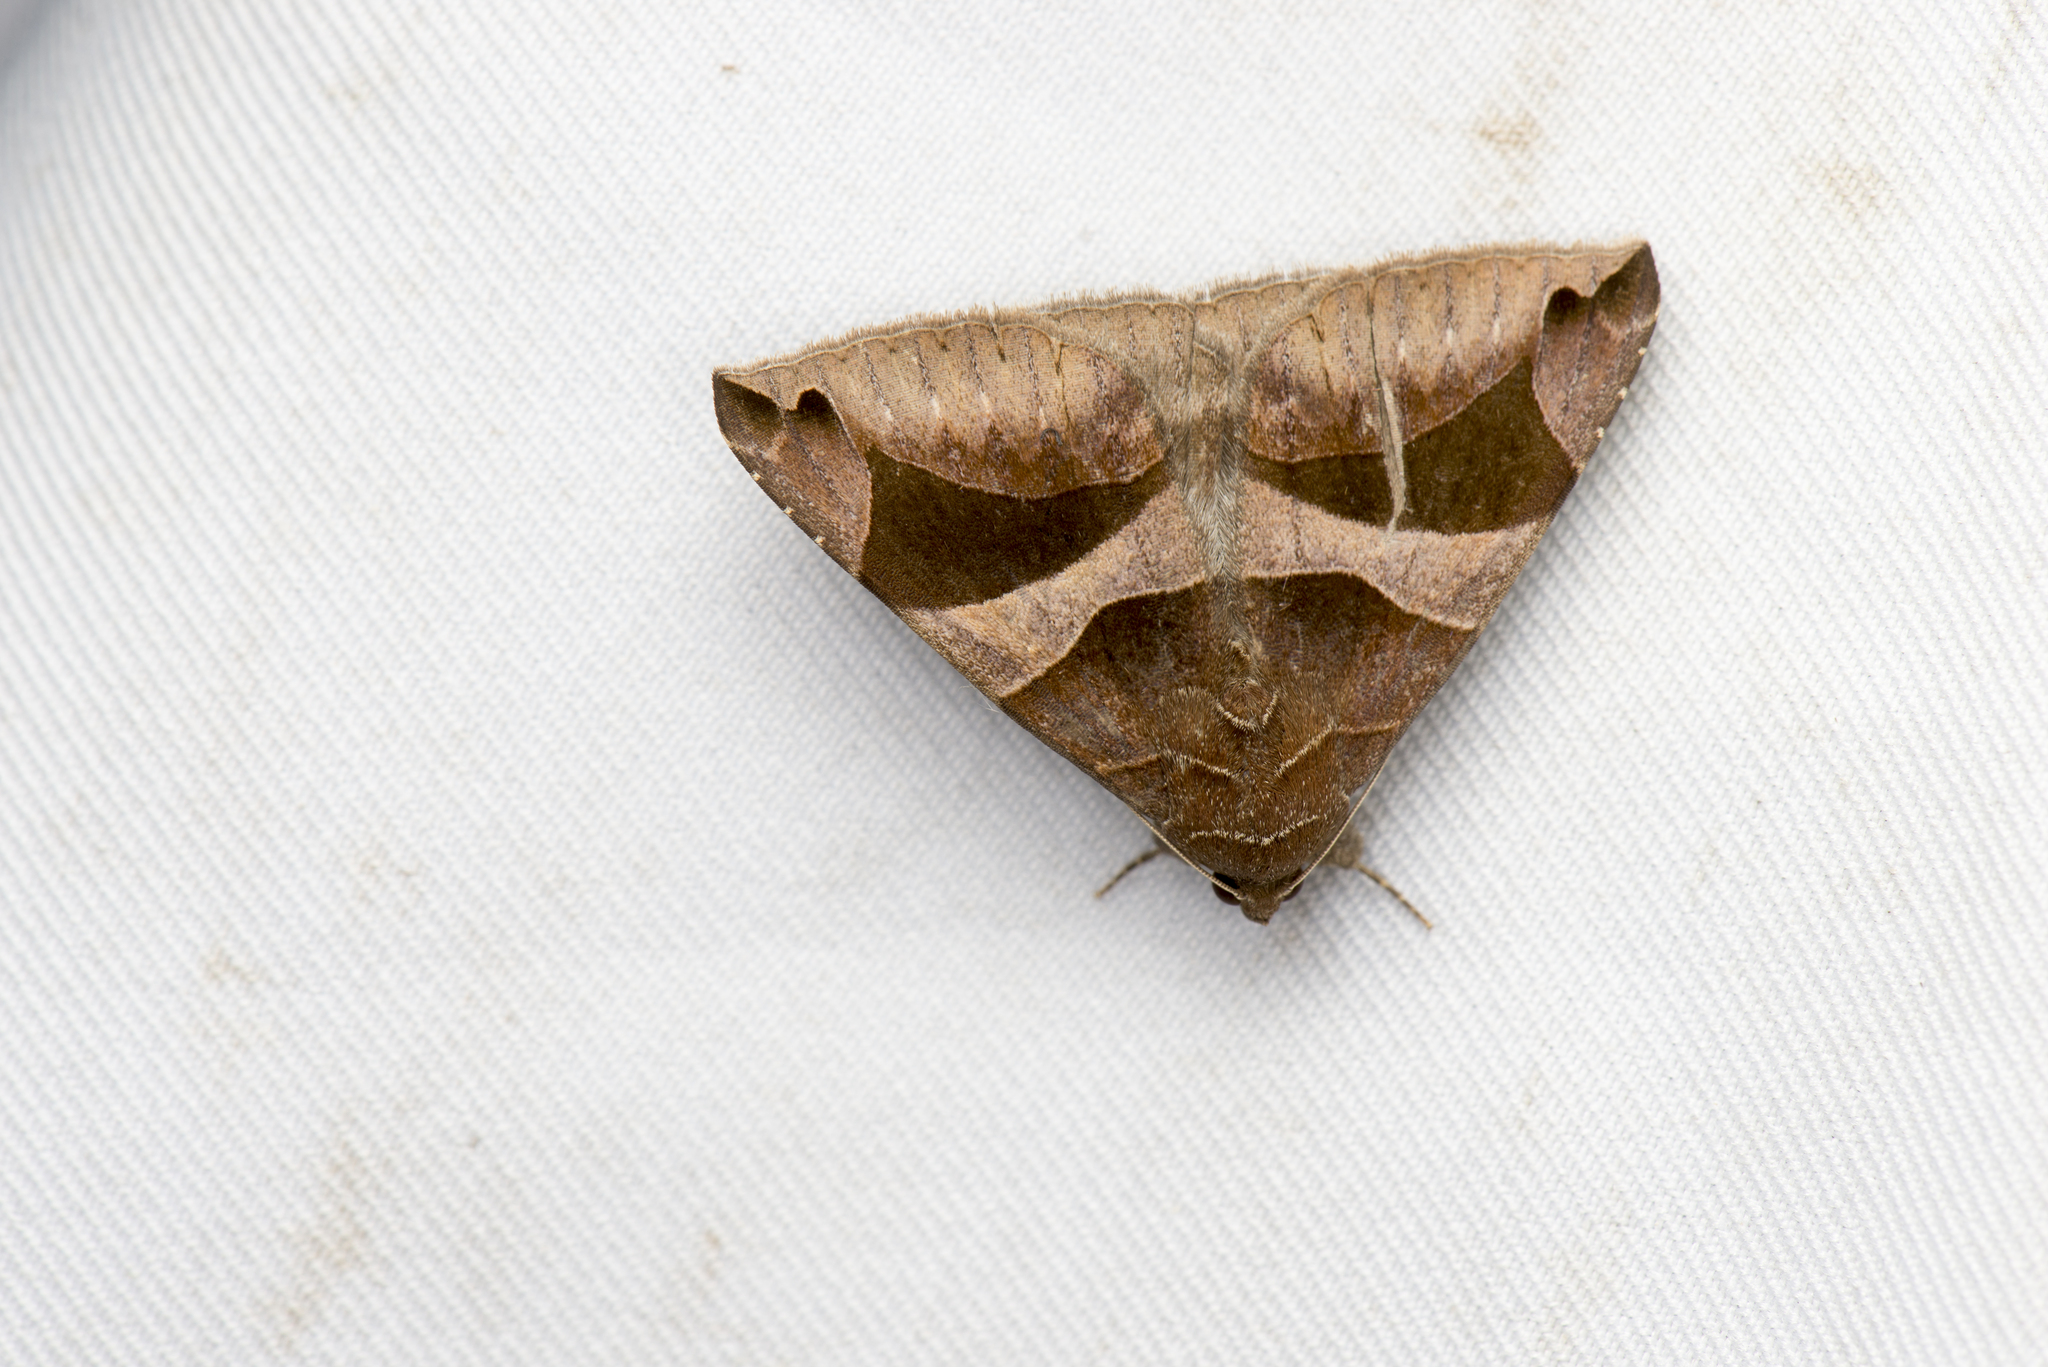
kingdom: Animalia
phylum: Arthropoda
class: Insecta
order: Lepidoptera
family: Erebidae
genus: Bastilla
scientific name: Bastilla arcuata
